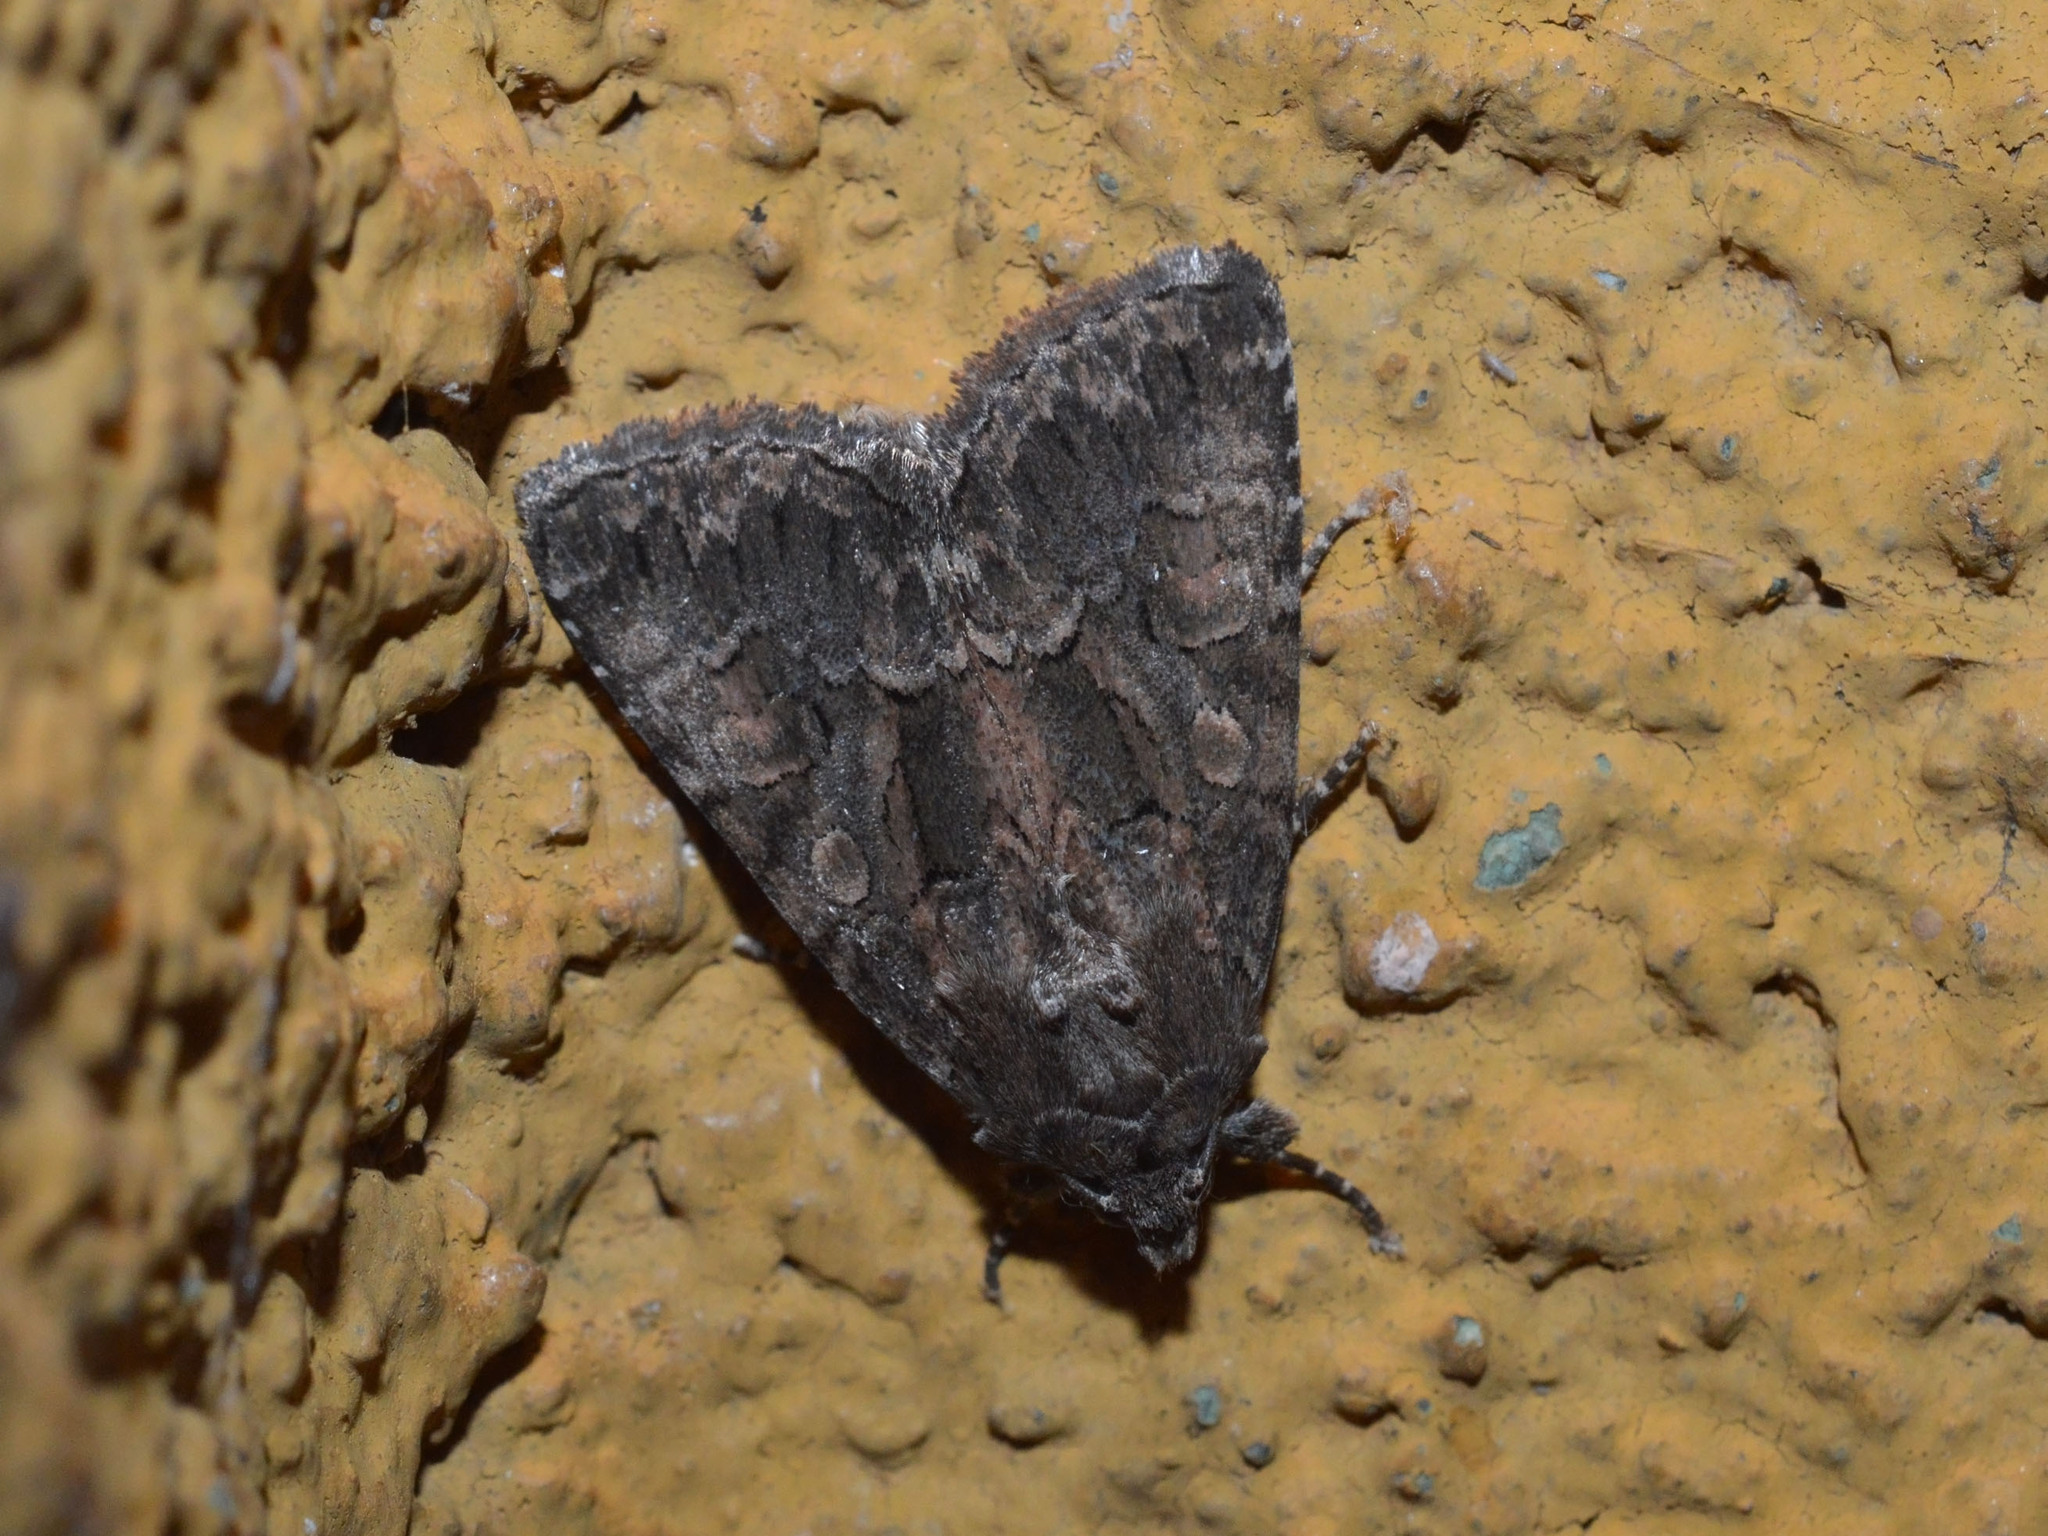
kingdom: Animalia
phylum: Arthropoda
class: Insecta
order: Lepidoptera
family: Noctuidae
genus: Thalpophila
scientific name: Thalpophila matura
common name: Straw underwing
